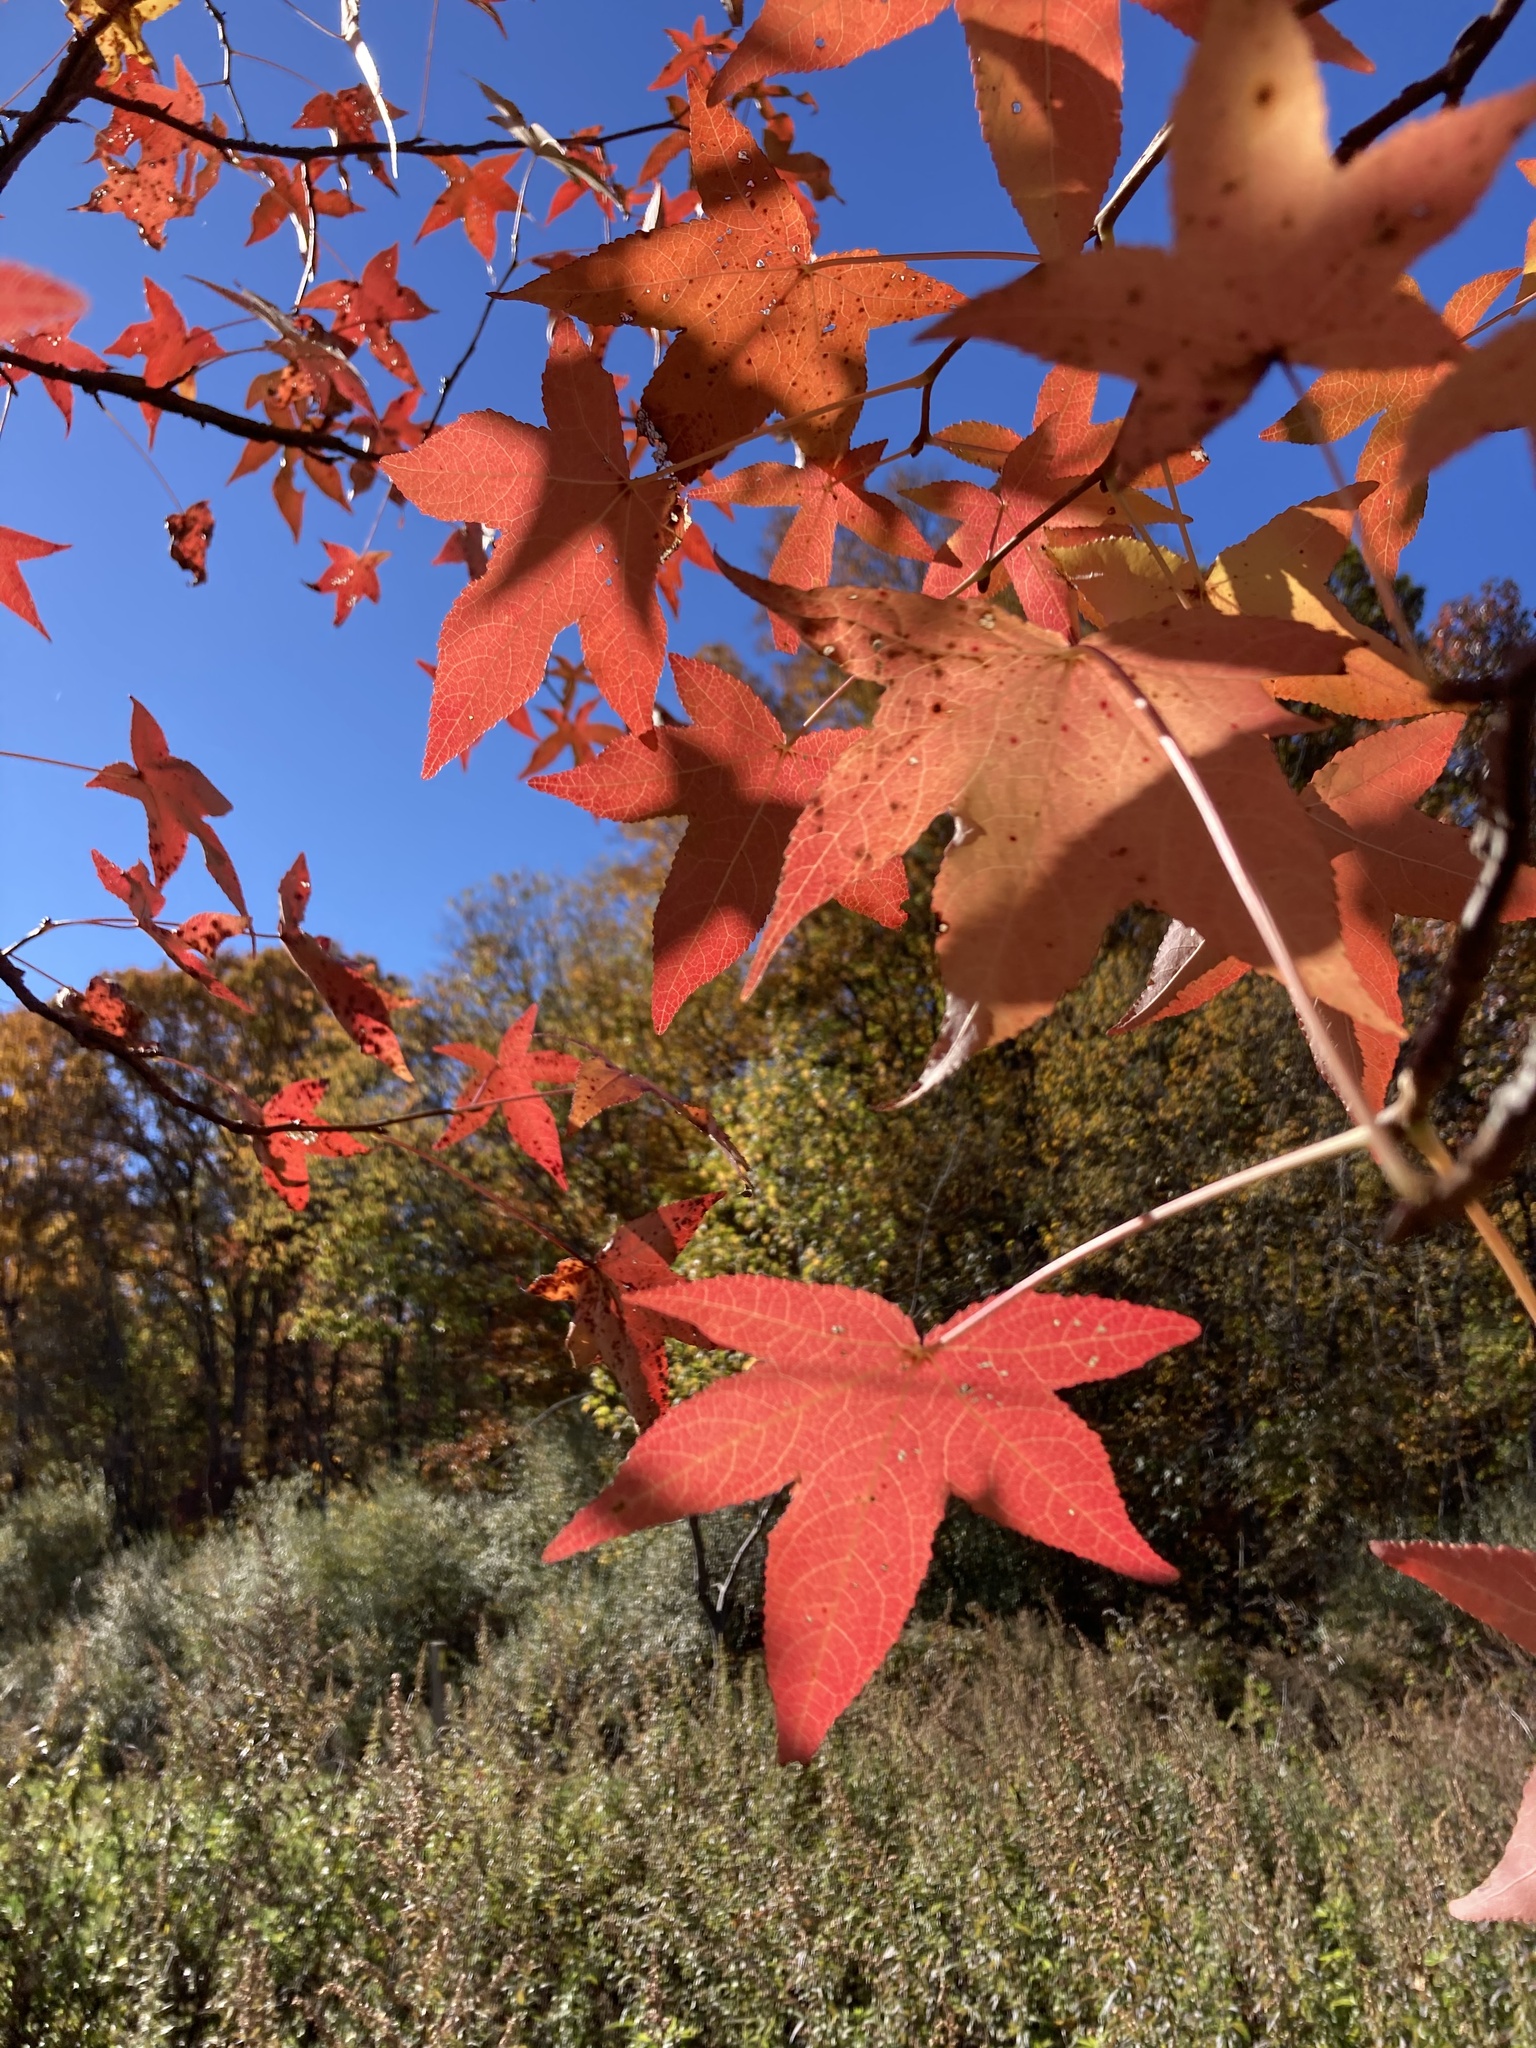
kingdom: Plantae
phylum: Tracheophyta
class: Magnoliopsida
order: Saxifragales
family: Altingiaceae
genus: Liquidambar
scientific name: Liquidambar styraciflua
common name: Sweet gum
